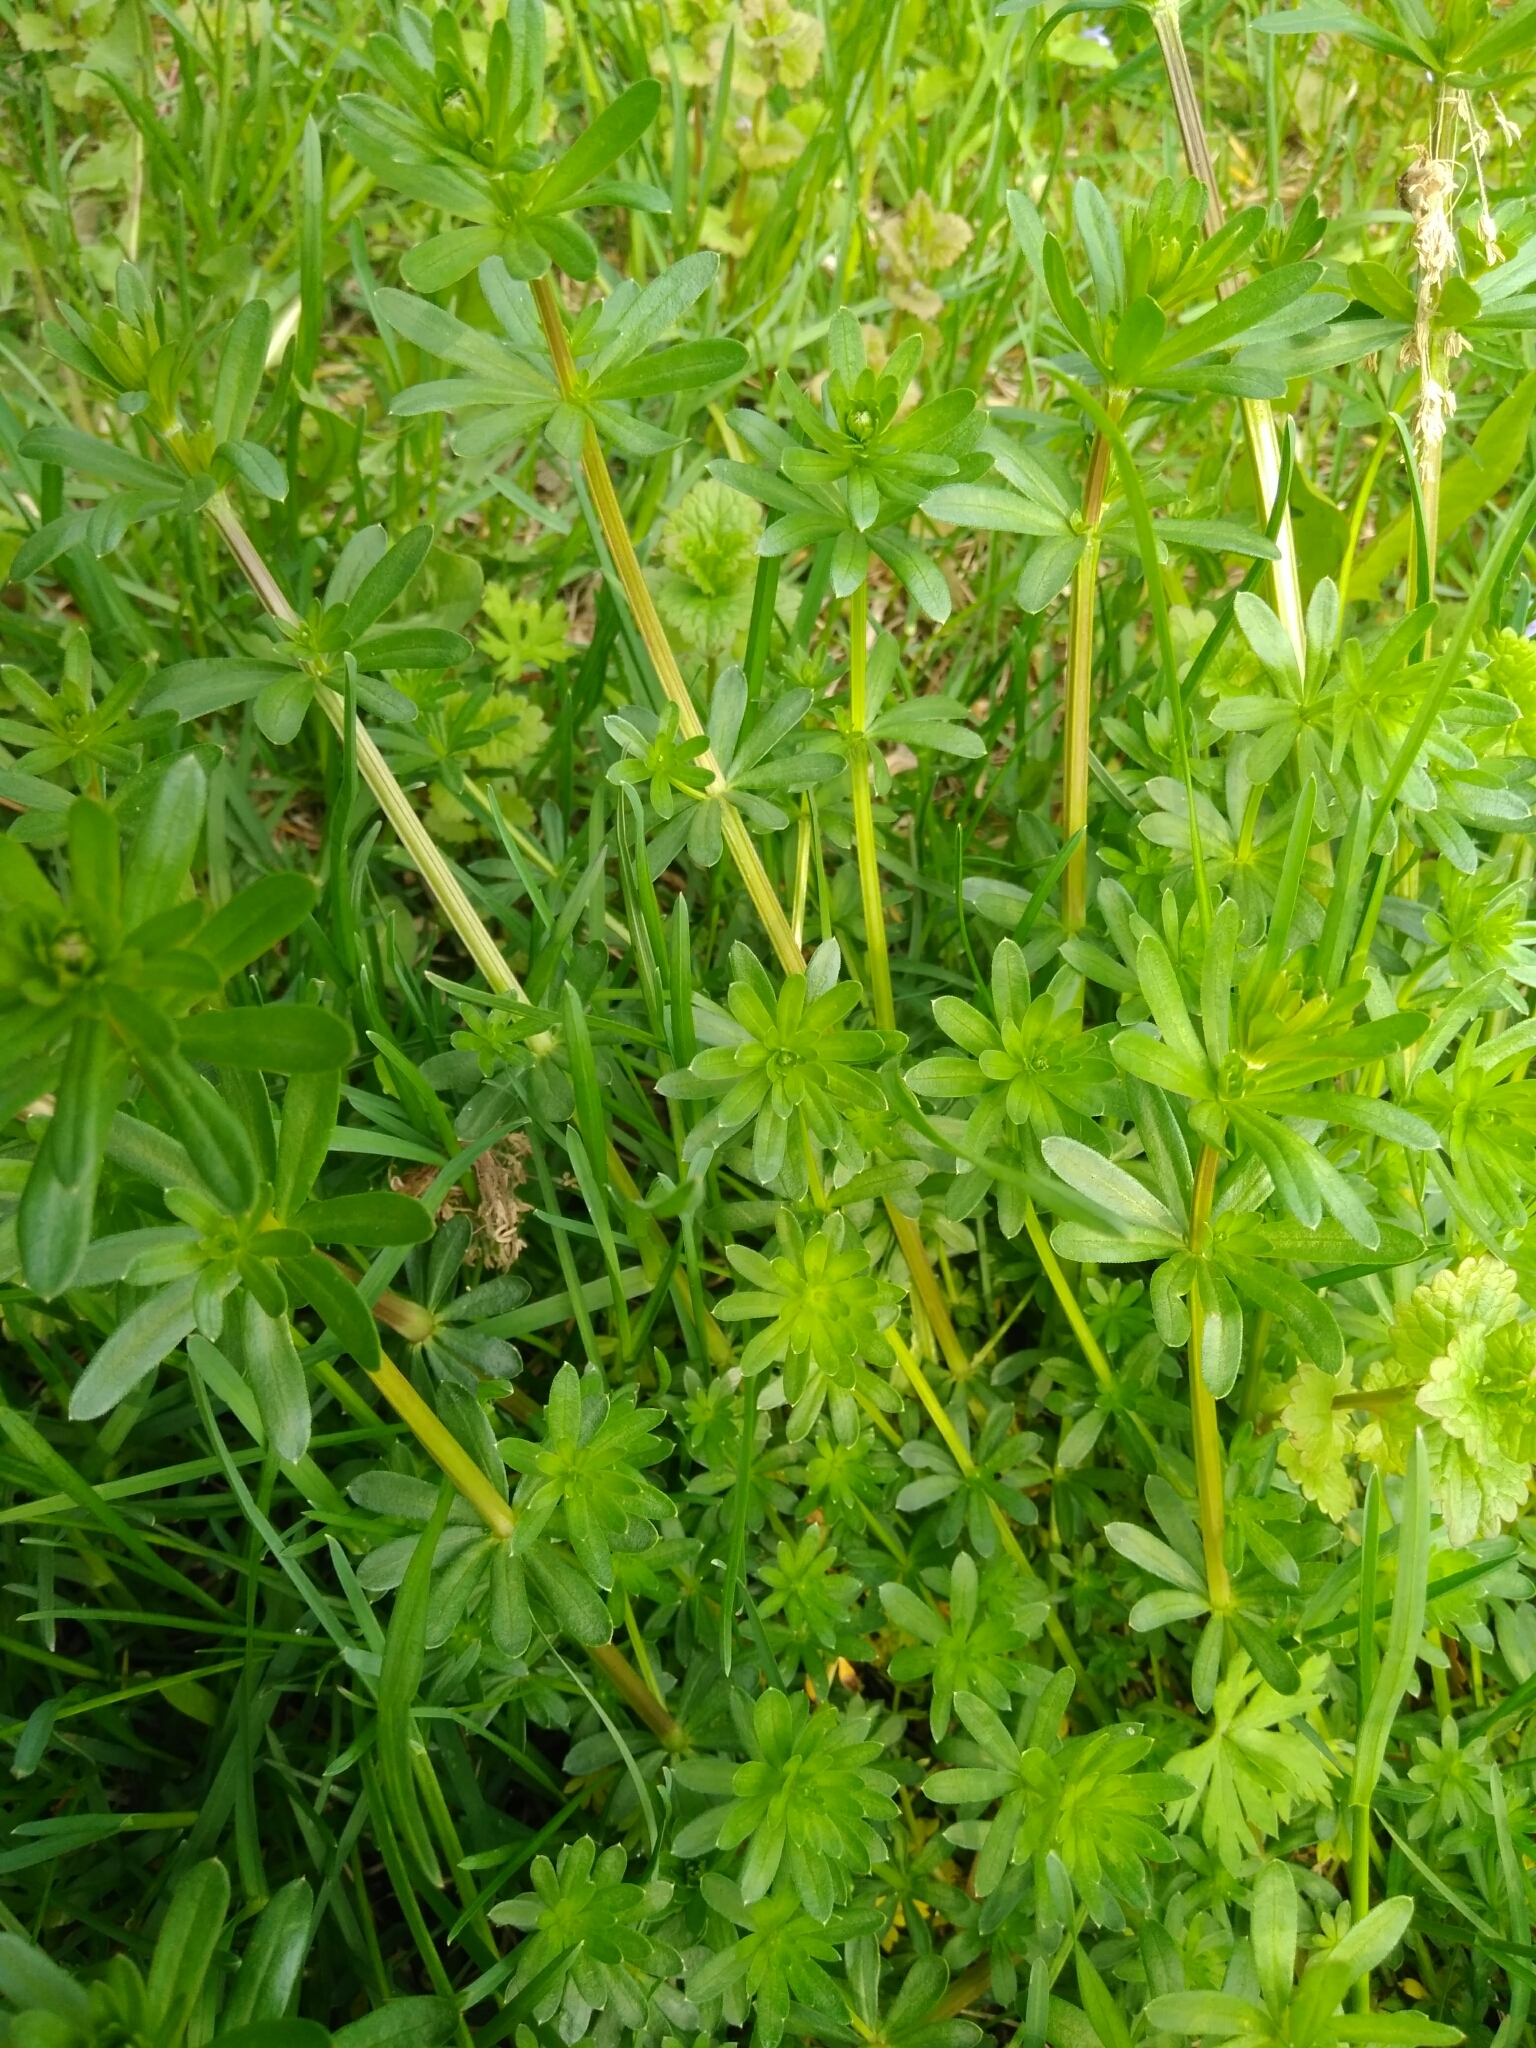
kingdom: Plantae
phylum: Tracheophyta
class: Magnoliopsida
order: Gentianales
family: Rubiaceae
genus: Galium
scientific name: Galium mollugo
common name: Hedge bedstraw
